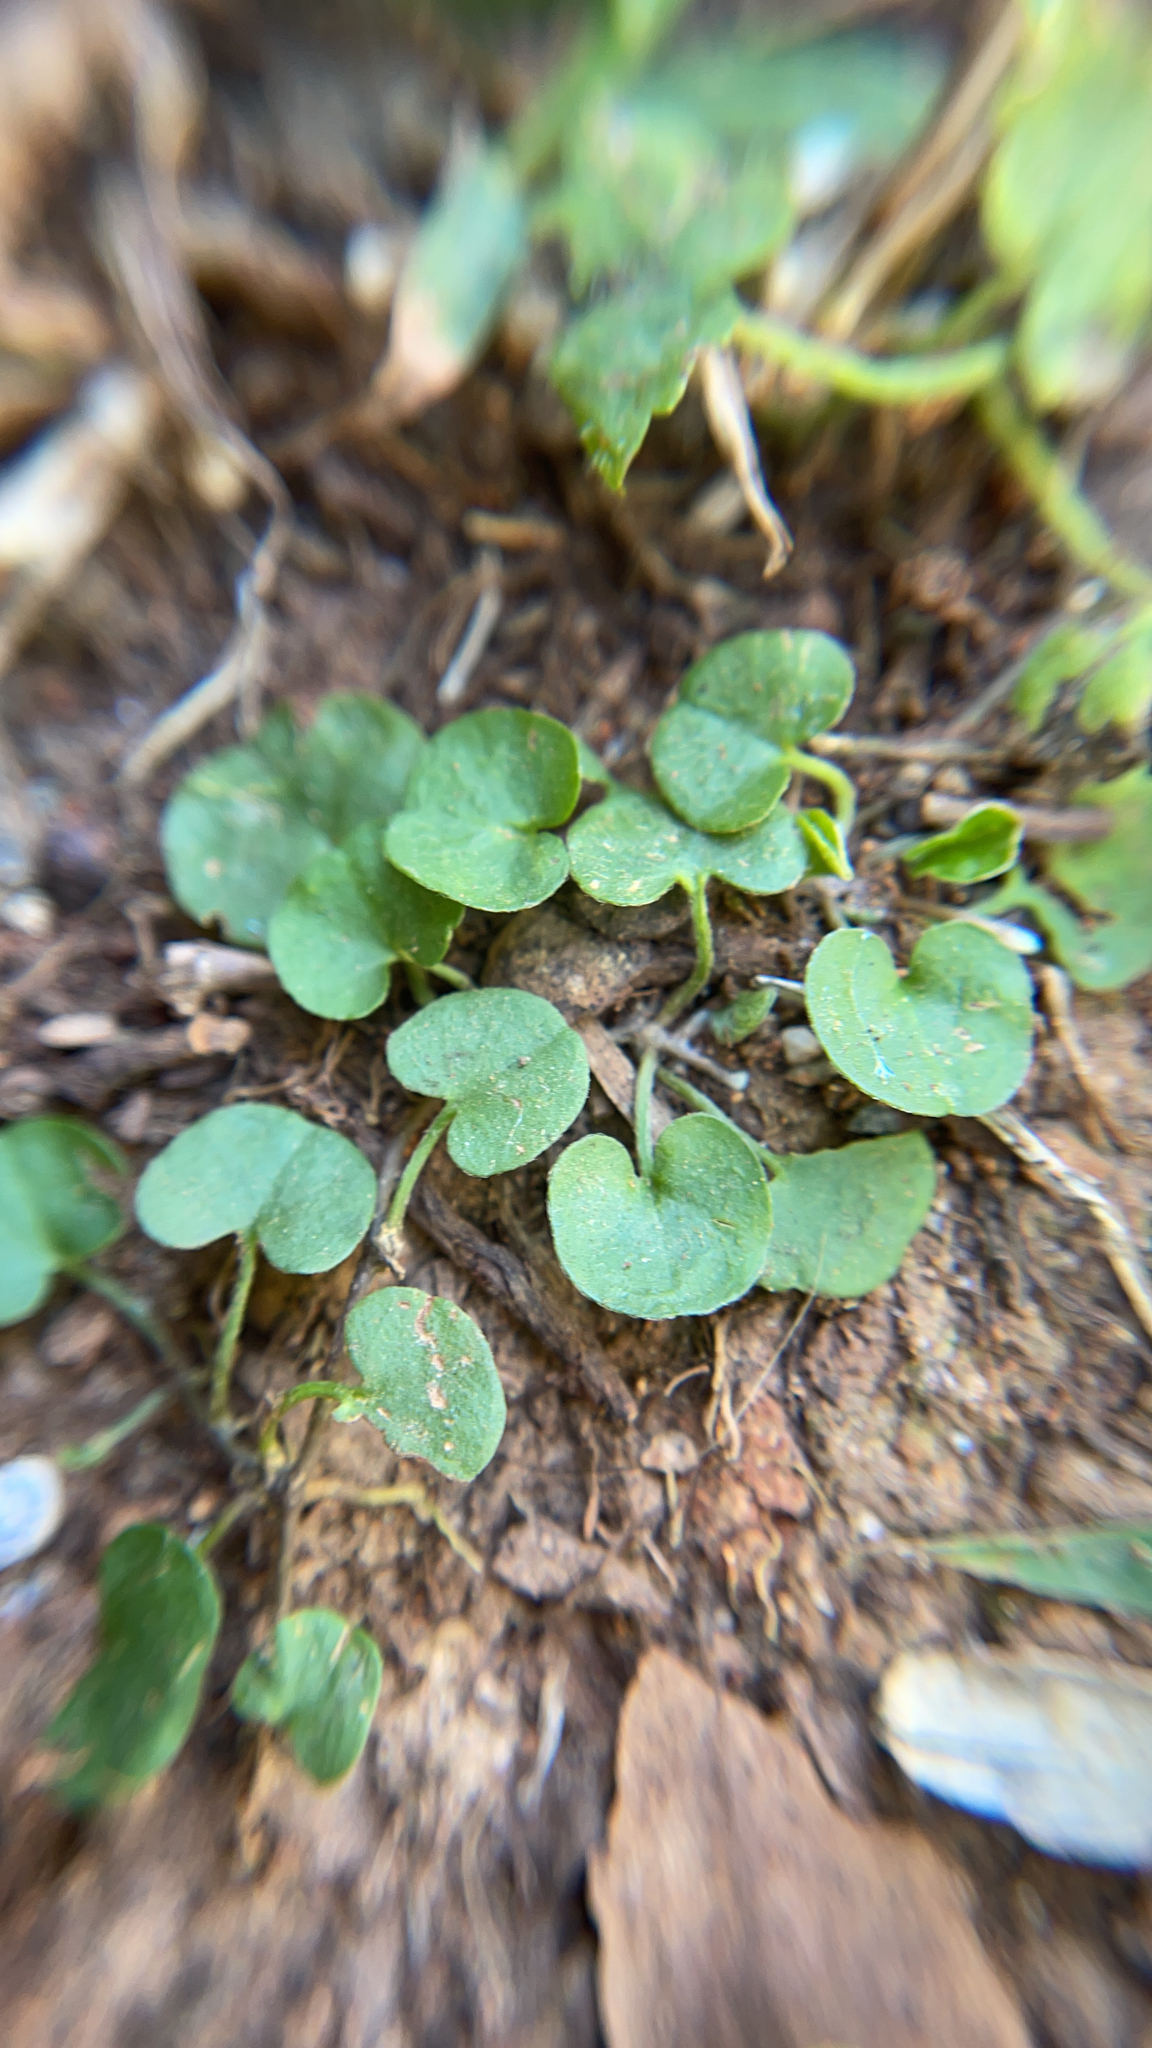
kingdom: Plantae
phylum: Tracheophyta
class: Magnoliopsida
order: Solanales
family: Convolvulaceae
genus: Dichondra
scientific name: Dichondra carolinensis
